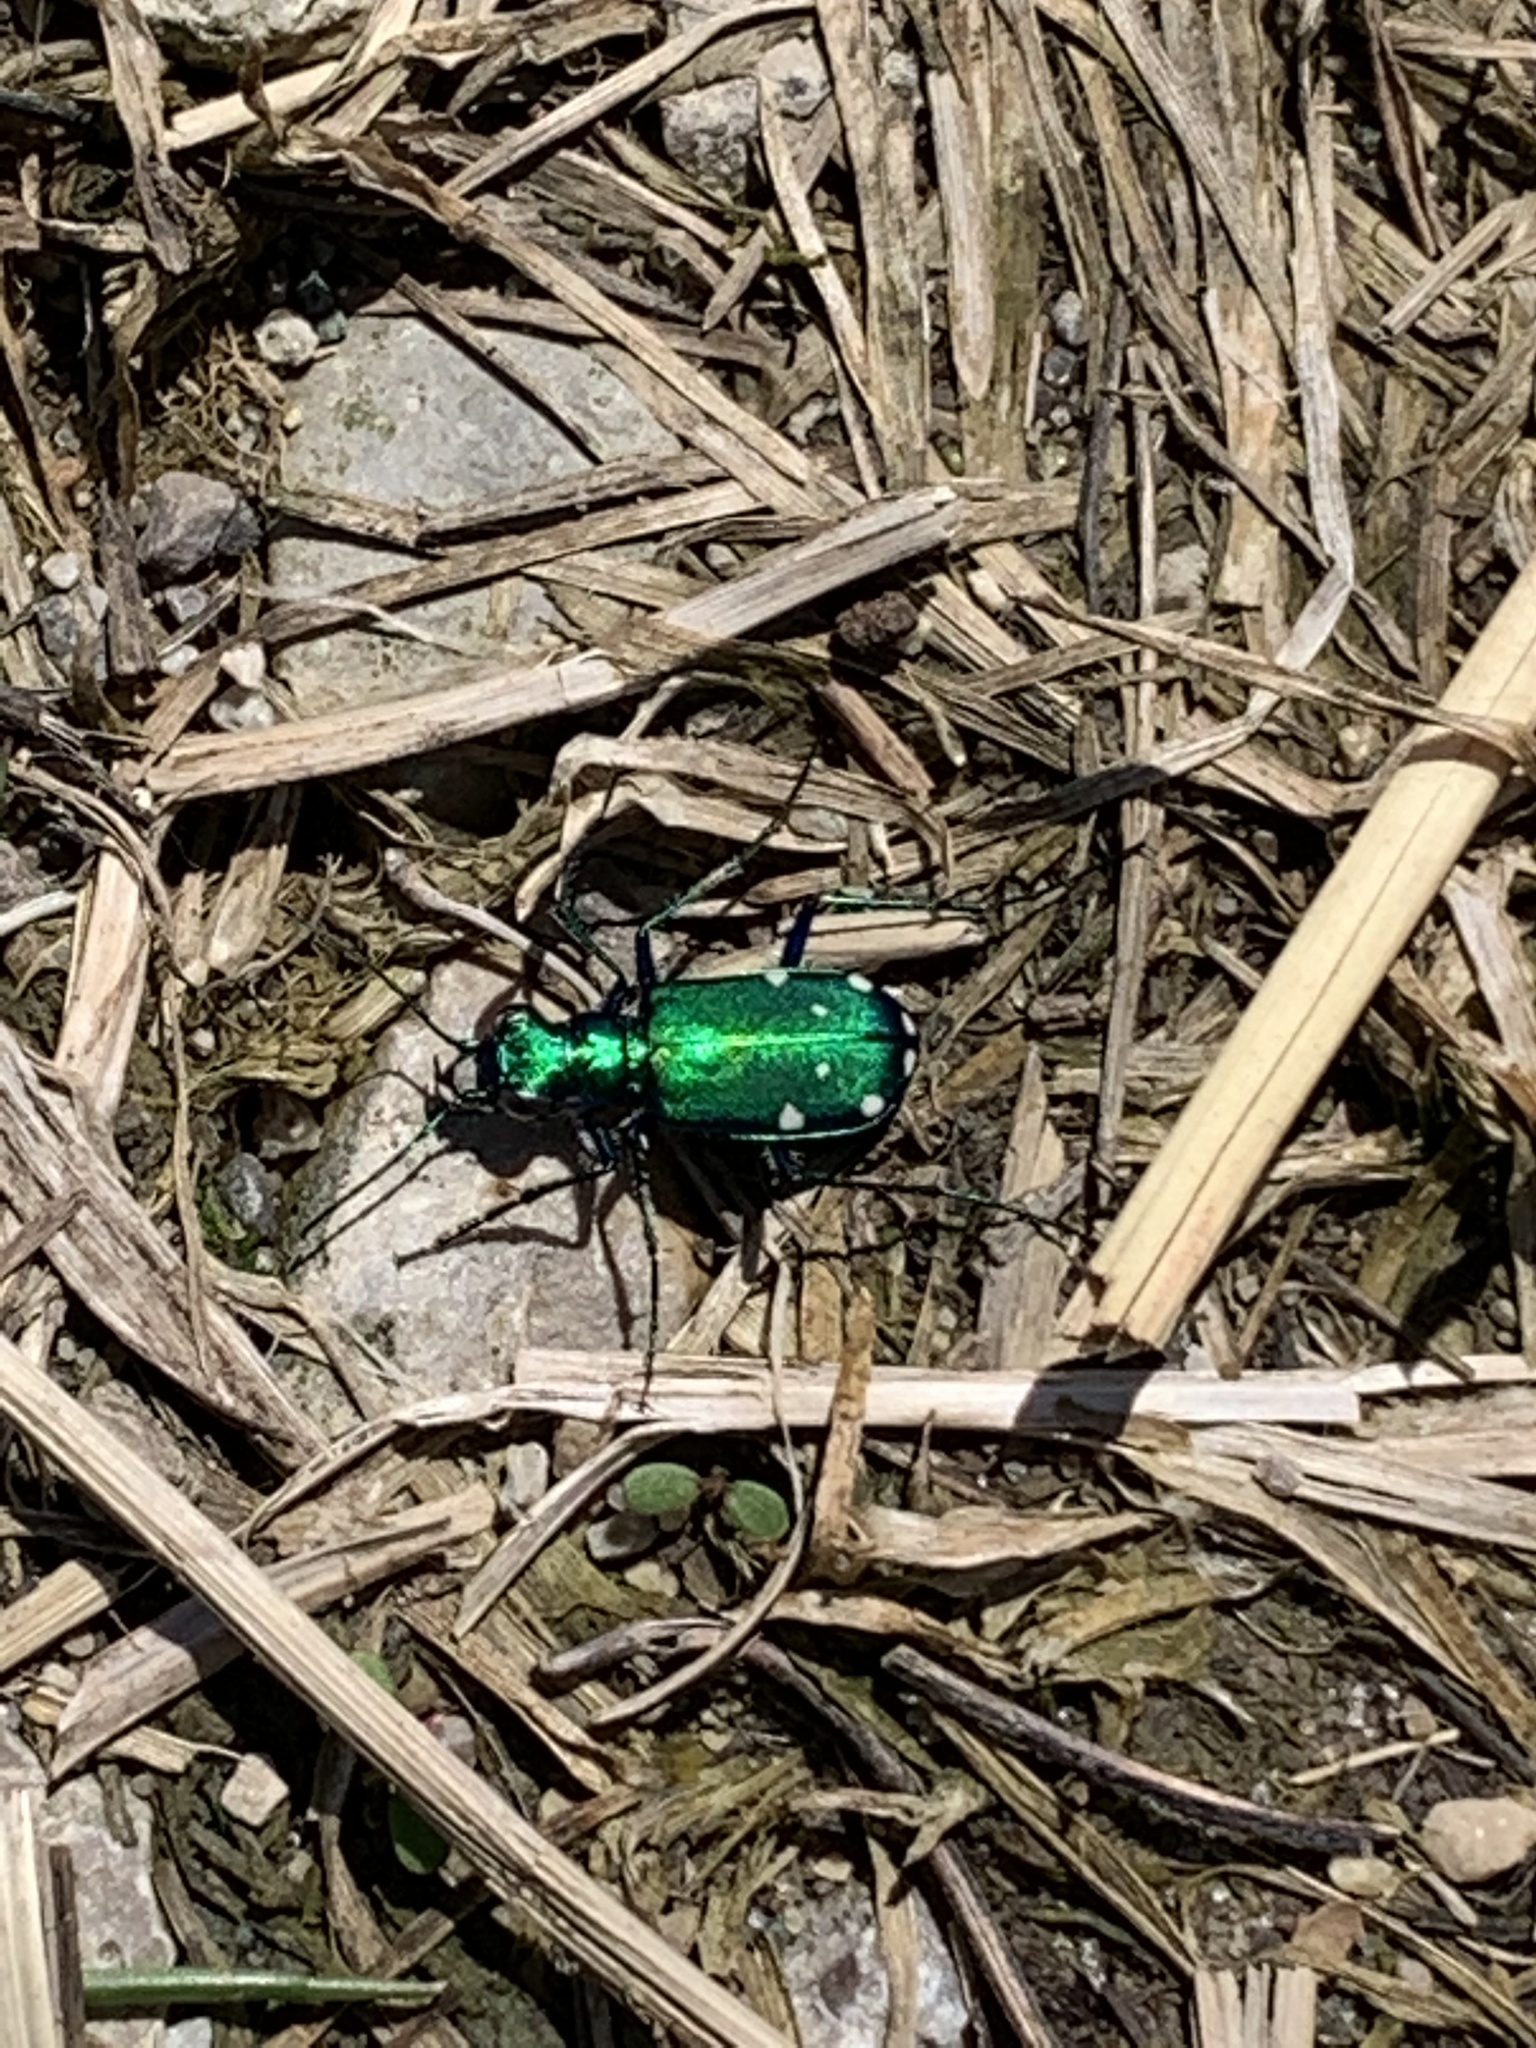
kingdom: Animalia
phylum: Arthropoda
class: Insecta
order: Coleoptera
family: Carabidae
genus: Cicindela
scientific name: Cicindela sexguttata
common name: Six-spotted tiger beetle
